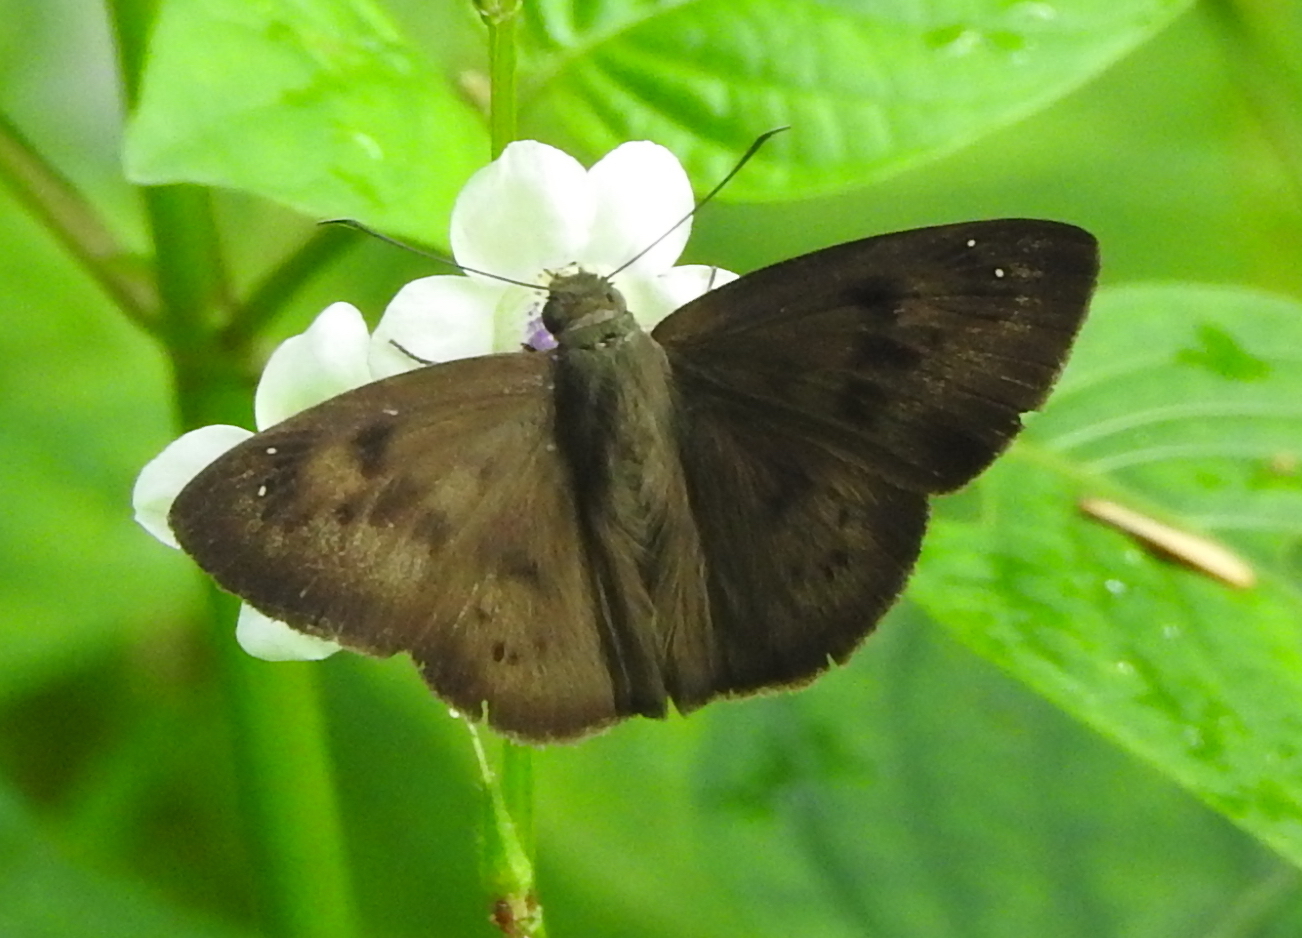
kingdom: Animalia
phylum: Arthropoda
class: Insecta
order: Lepidoptera
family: Hesperiidae
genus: Tagiades
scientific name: Tagiades japetus
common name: Pied flat
